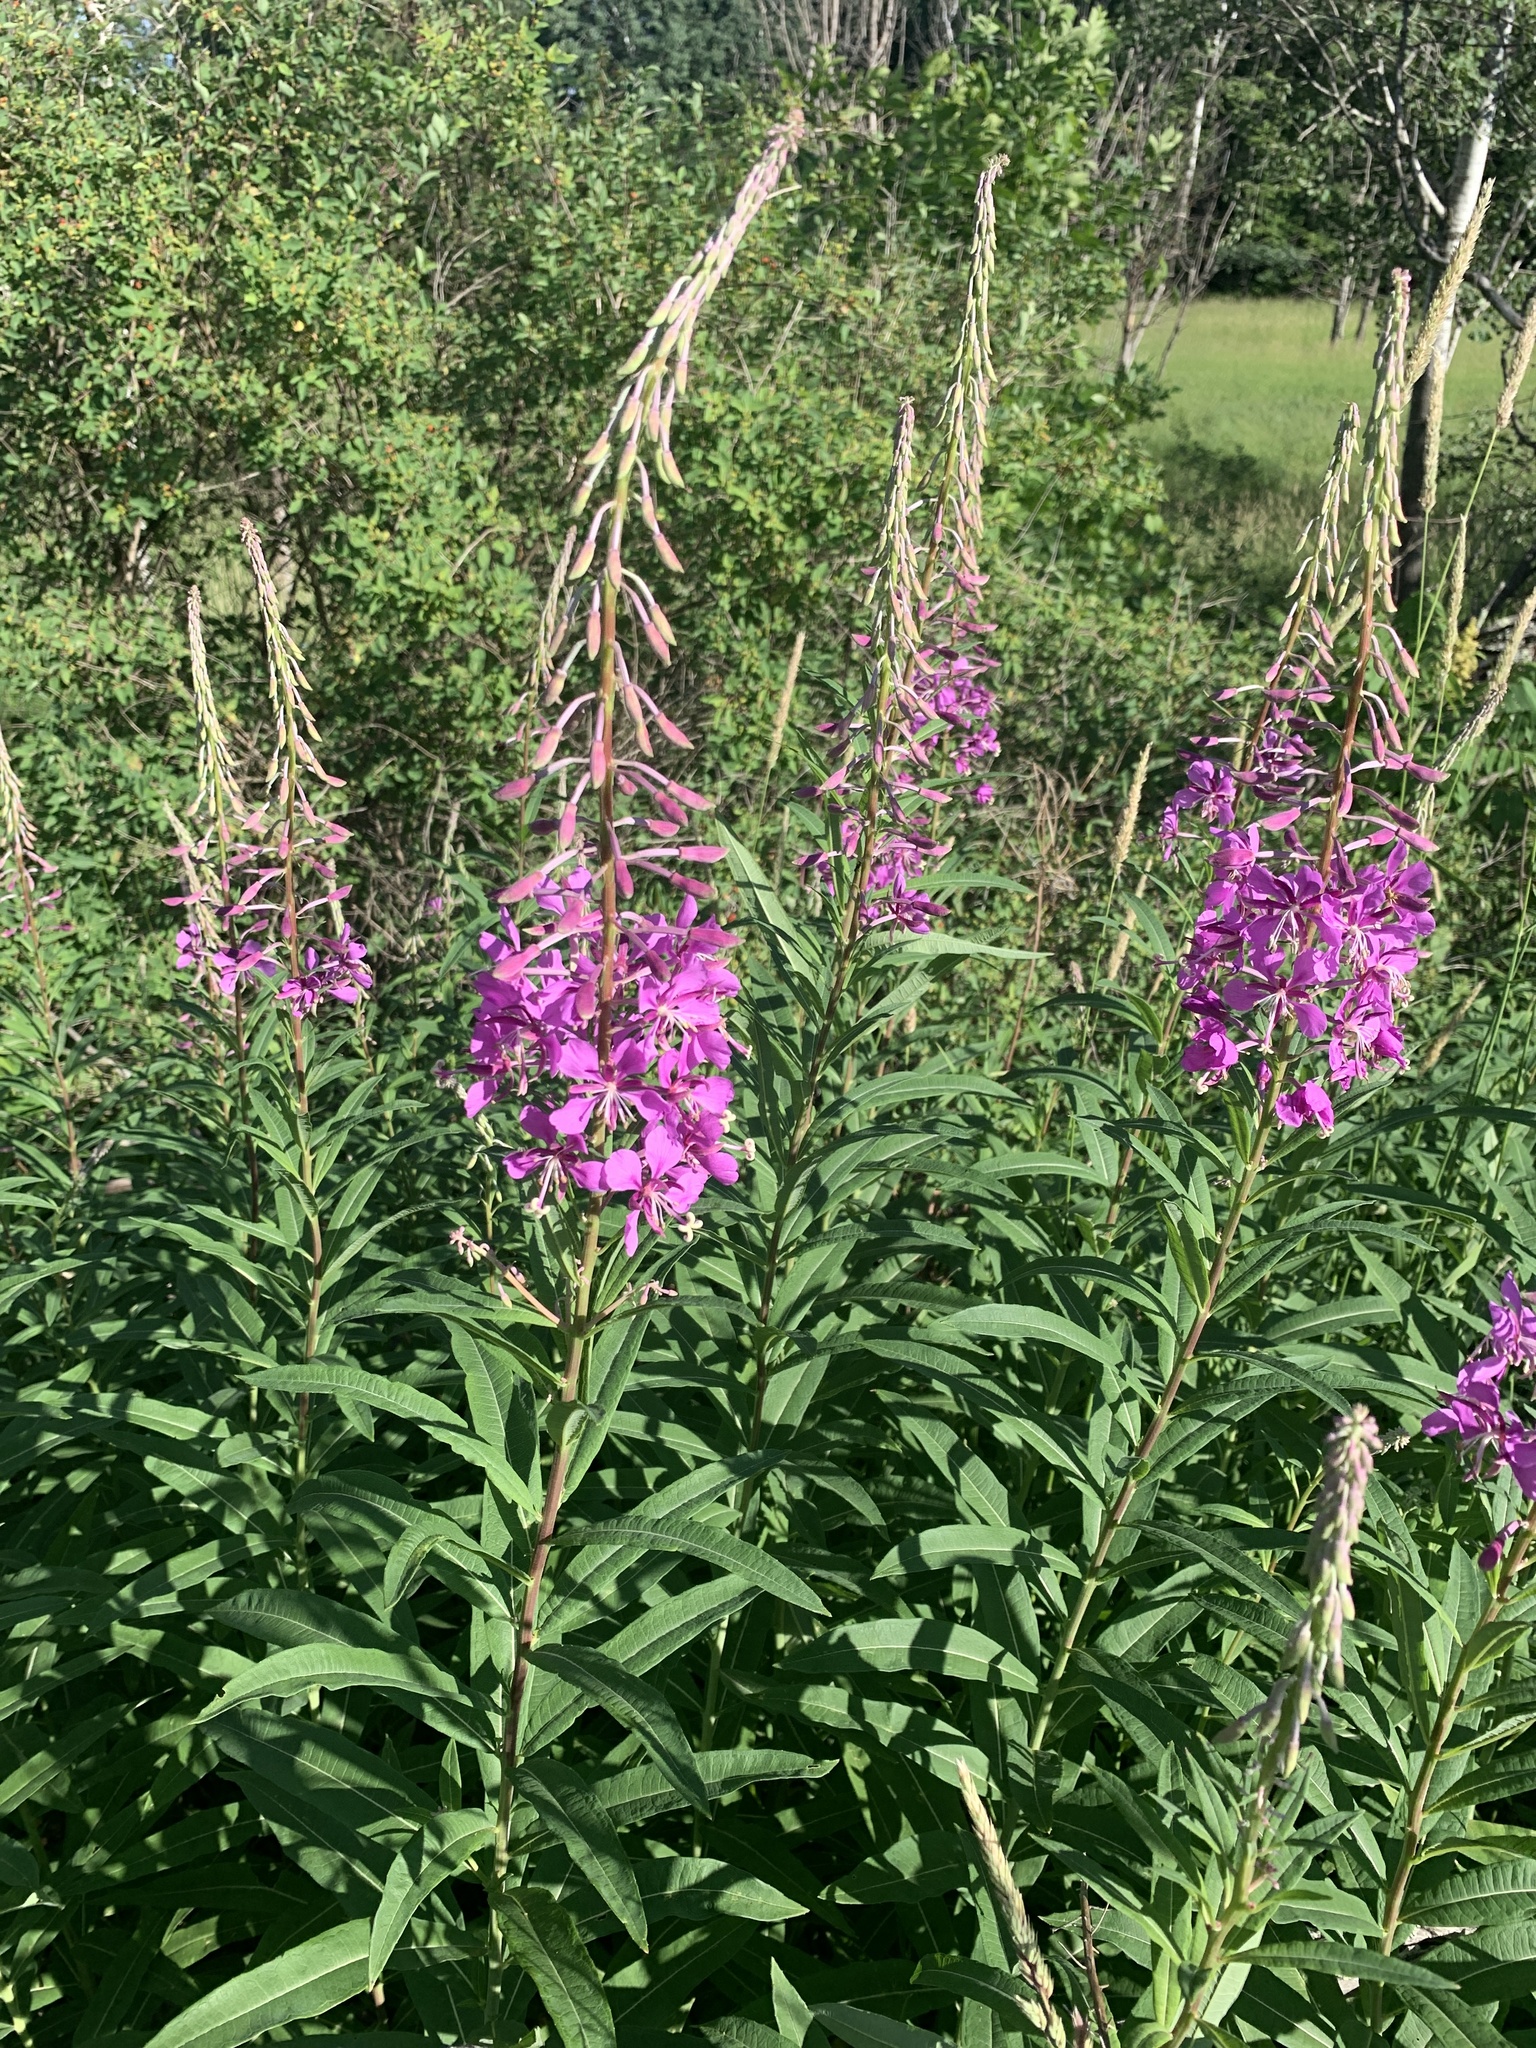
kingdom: Plantae
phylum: Tracheophyta
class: Magnoliopsida
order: Myrtales
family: Onagraceae
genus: Chamaenerion
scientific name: Chamaenerion angustifolium
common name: Fireweed
